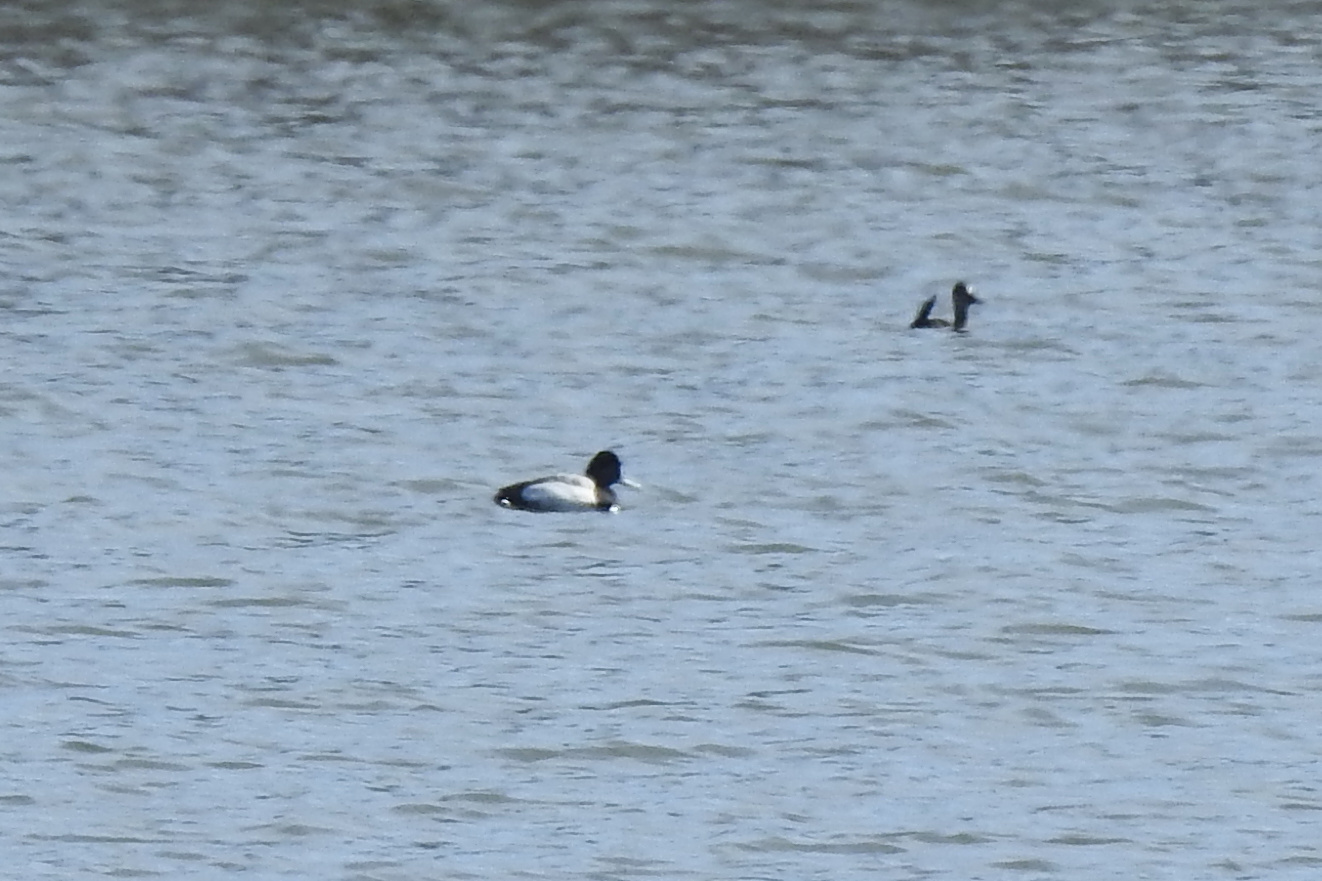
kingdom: Animalia
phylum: Chordata
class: Aves
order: Anseriformes
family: Anatidae
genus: Aythya
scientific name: Aythya affinis
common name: Lesser scaup
